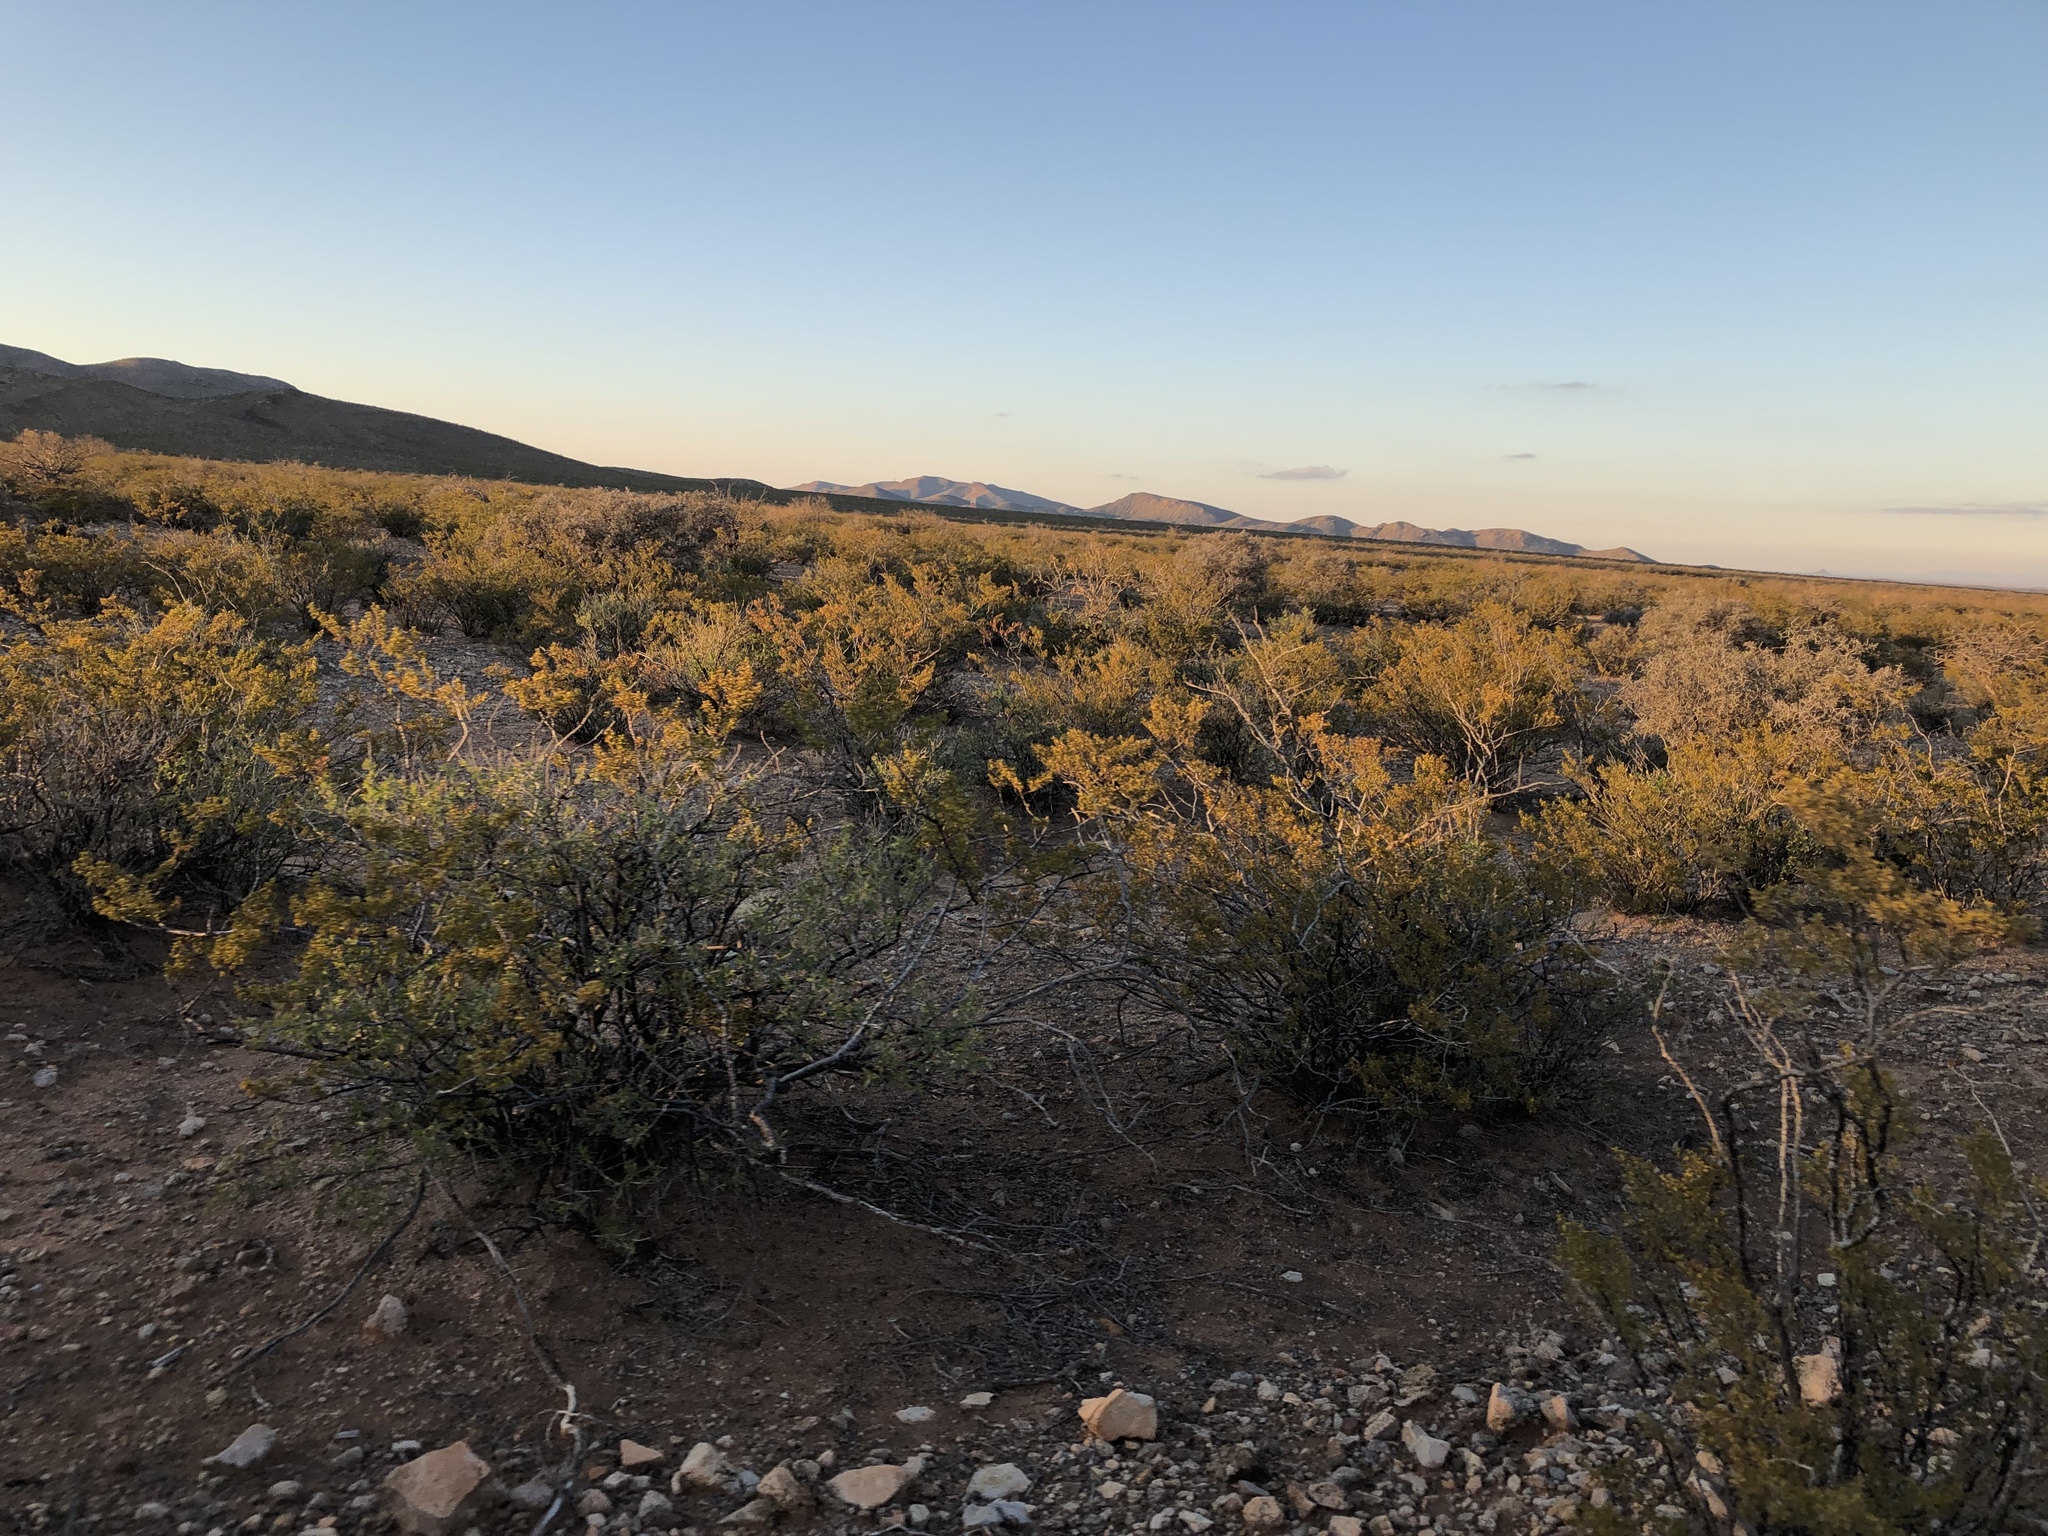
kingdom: Plantae
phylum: Tracheophyta
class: Magnoliopsida
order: Zygophyllales
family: Zygophyllaceae
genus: Larrea
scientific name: Larrea tridentata
